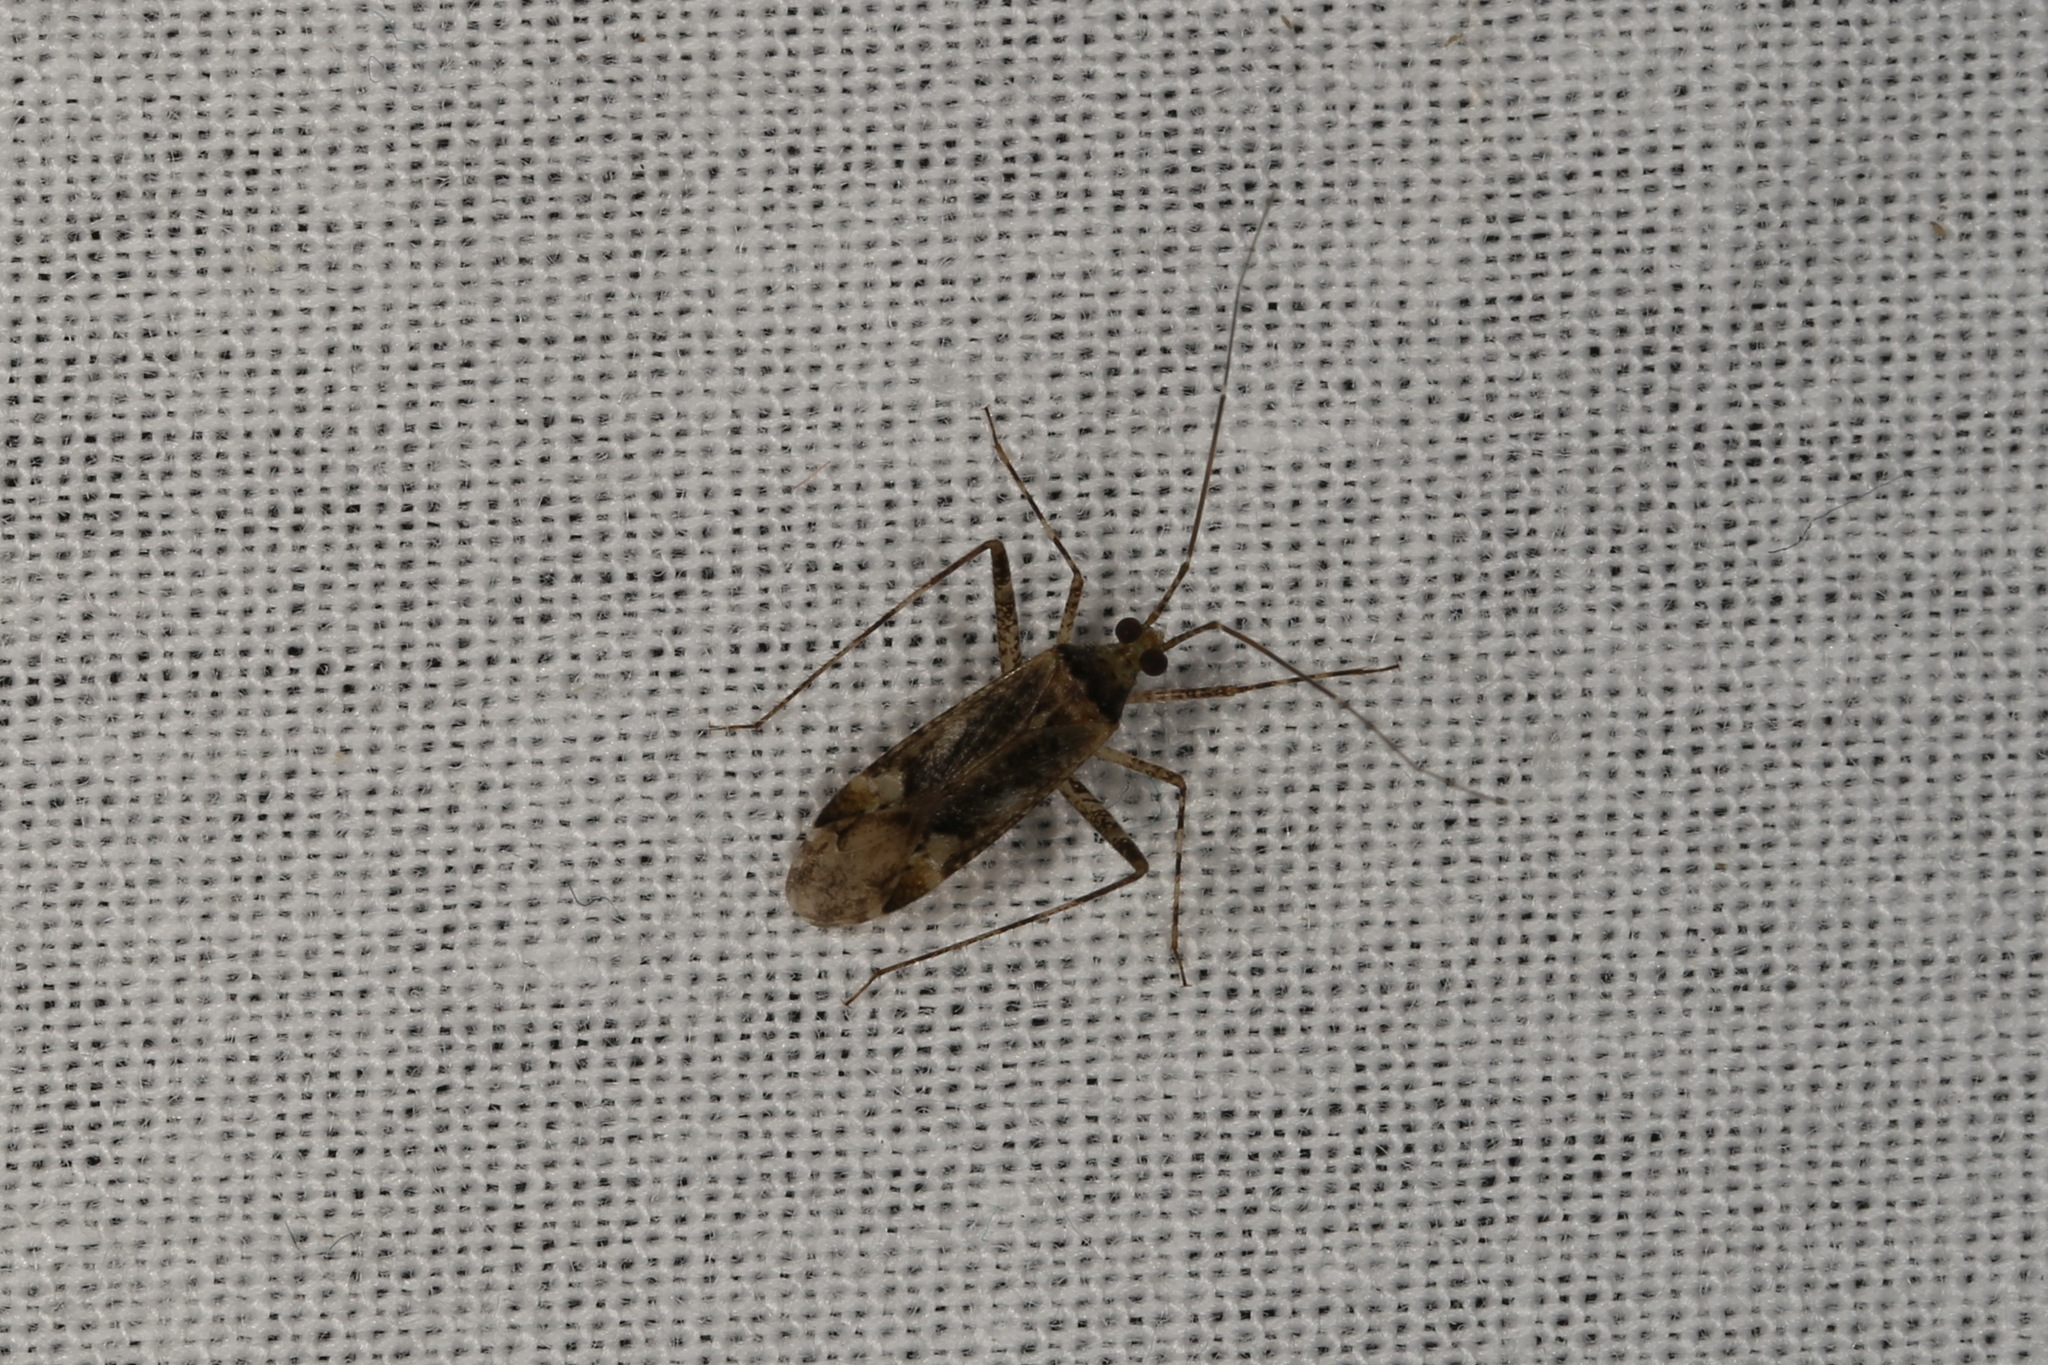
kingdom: Animalia
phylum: Arthropoda
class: Insecta
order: Hemiptera
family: Miridae
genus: Phytocoris
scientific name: Phytocoris longipennis
